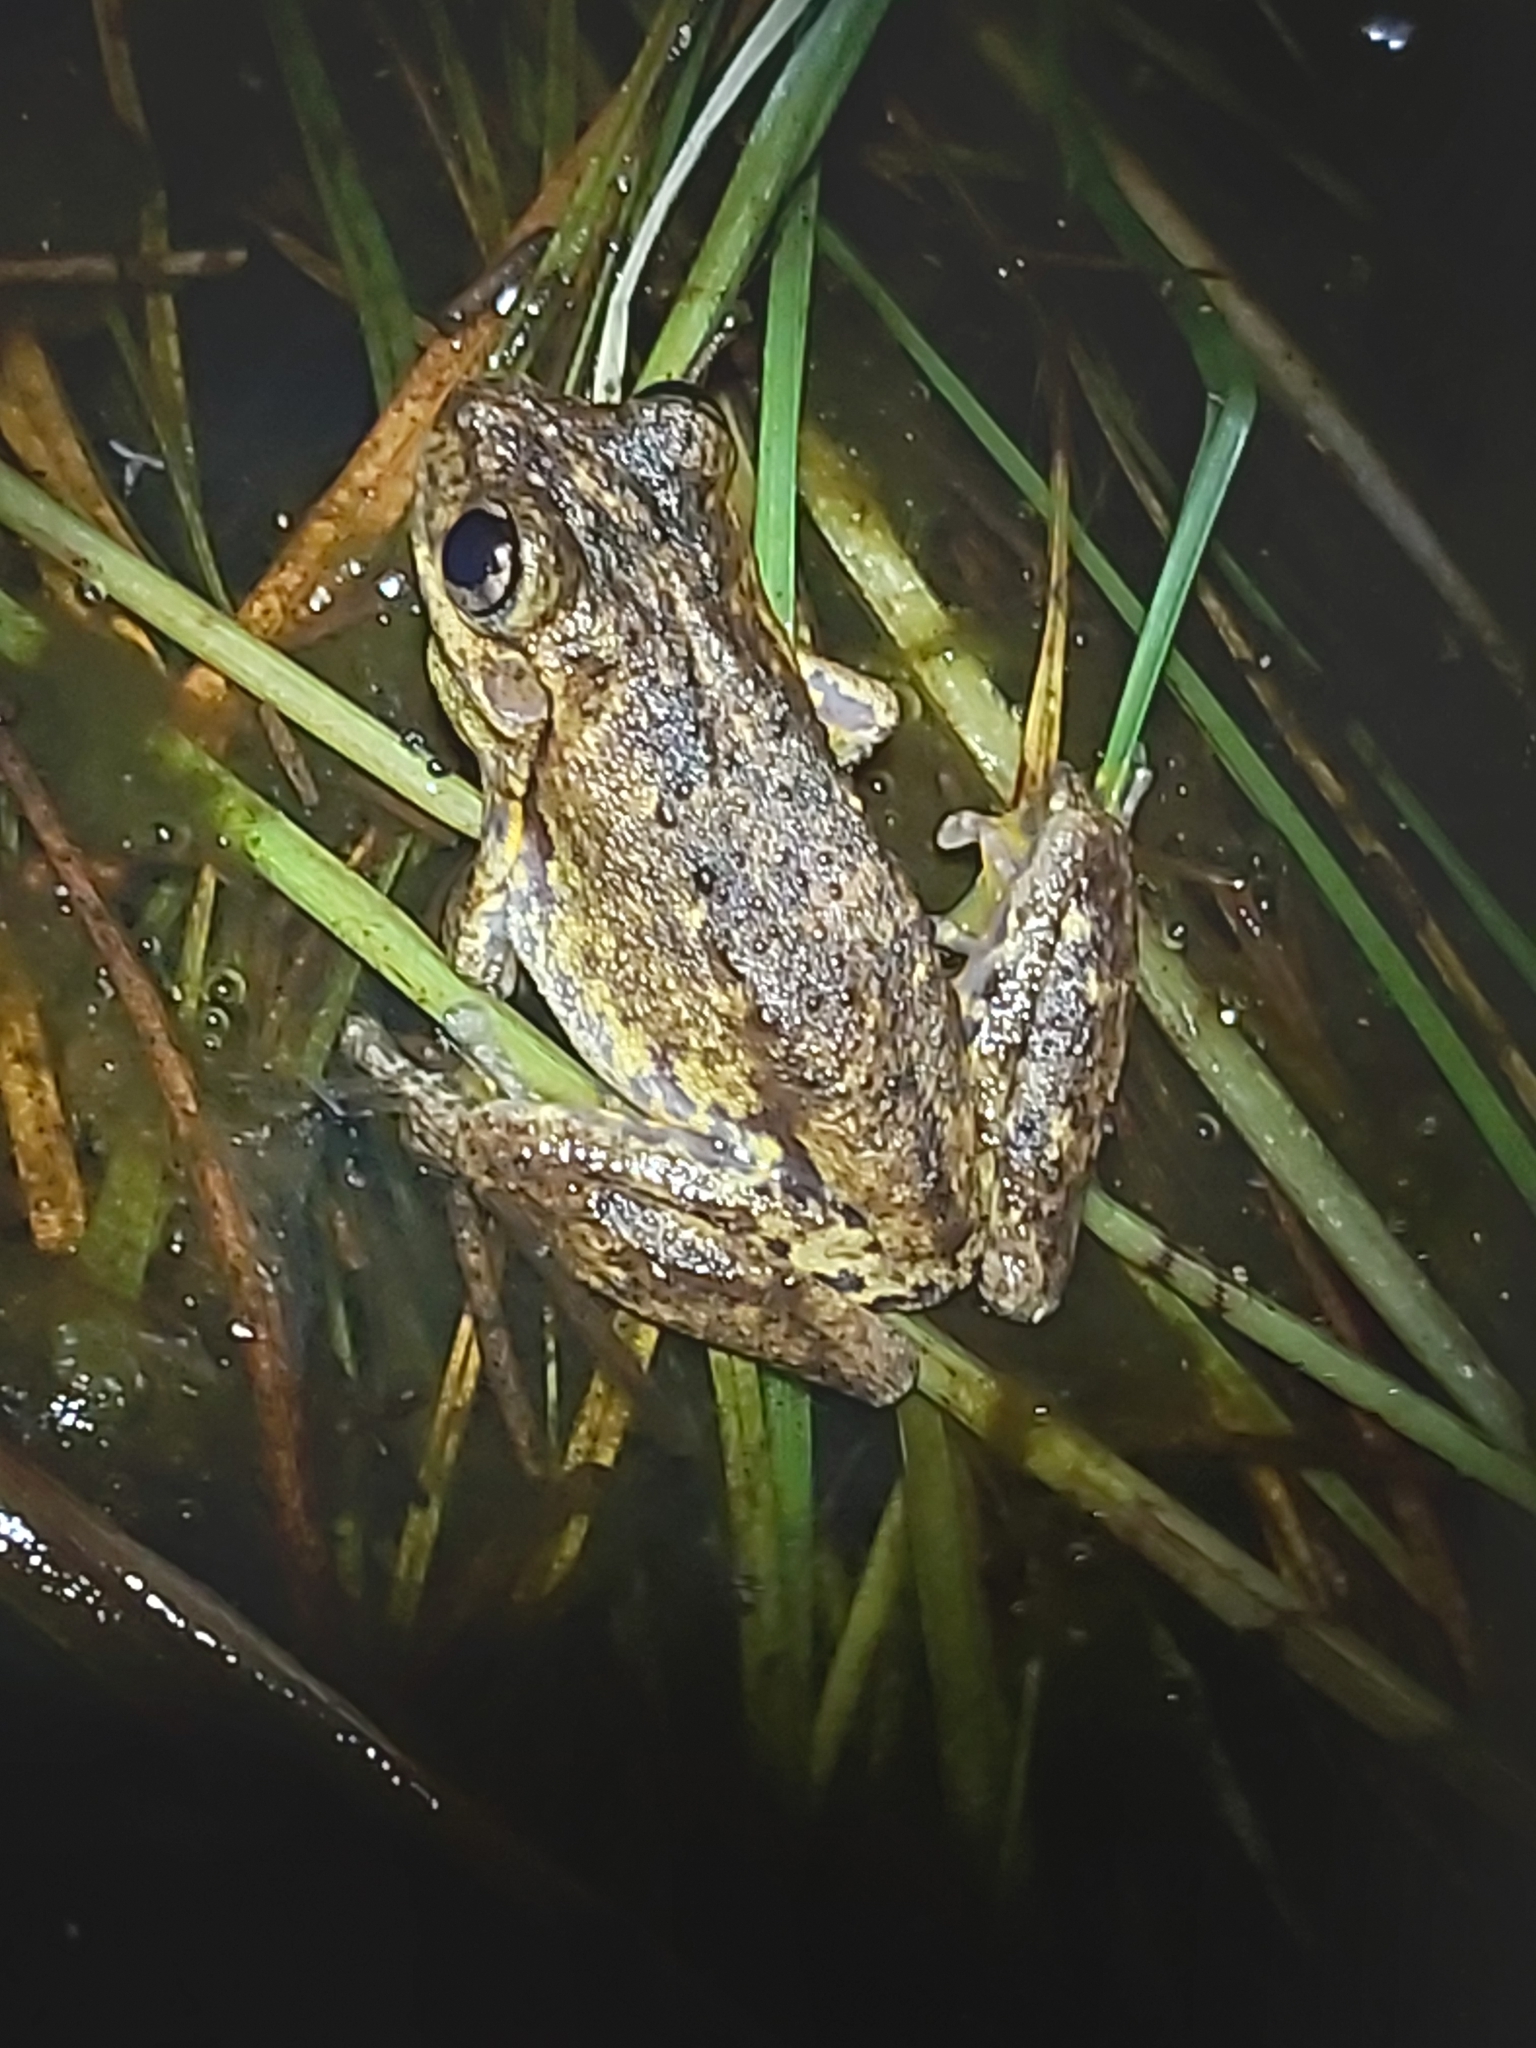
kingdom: Animalia
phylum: Chordata
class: Amphibia
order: Anura
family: Pelodryadidae
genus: Litoria
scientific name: Litoria peronii
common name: Emerald spotted treefrog
